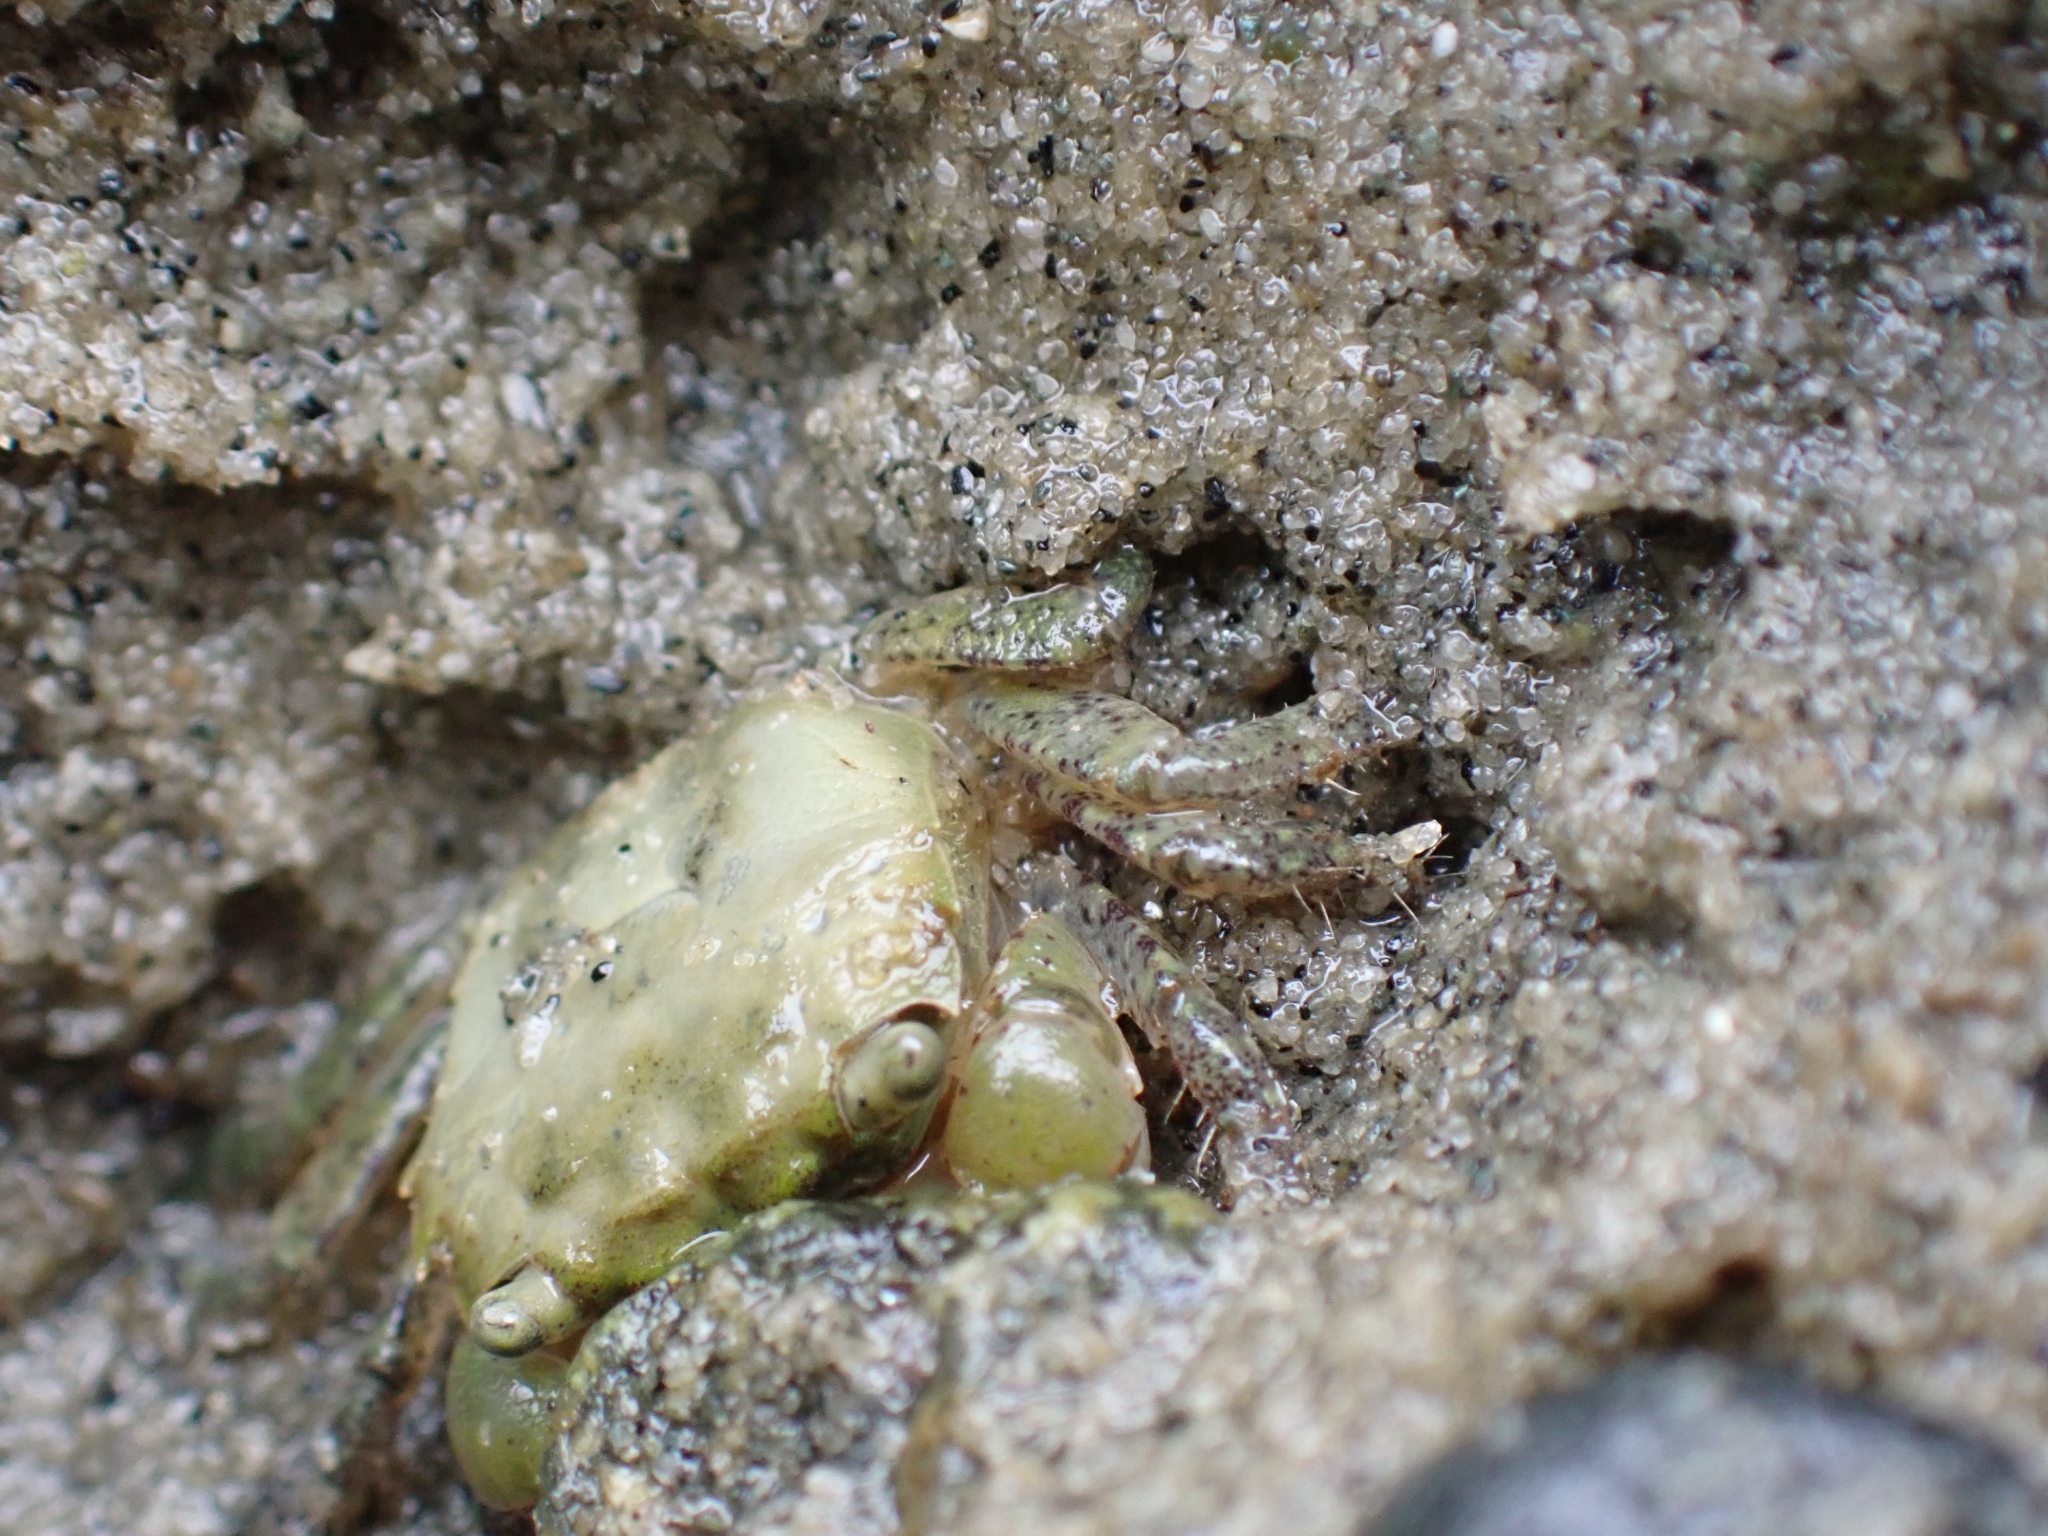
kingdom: Animalia
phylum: Arthropoda
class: Malacostraca
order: Decapoda
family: Varunidae
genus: Hemigrapsus
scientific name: Hemigrapsus oregonensis
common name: Yellow shore crab
